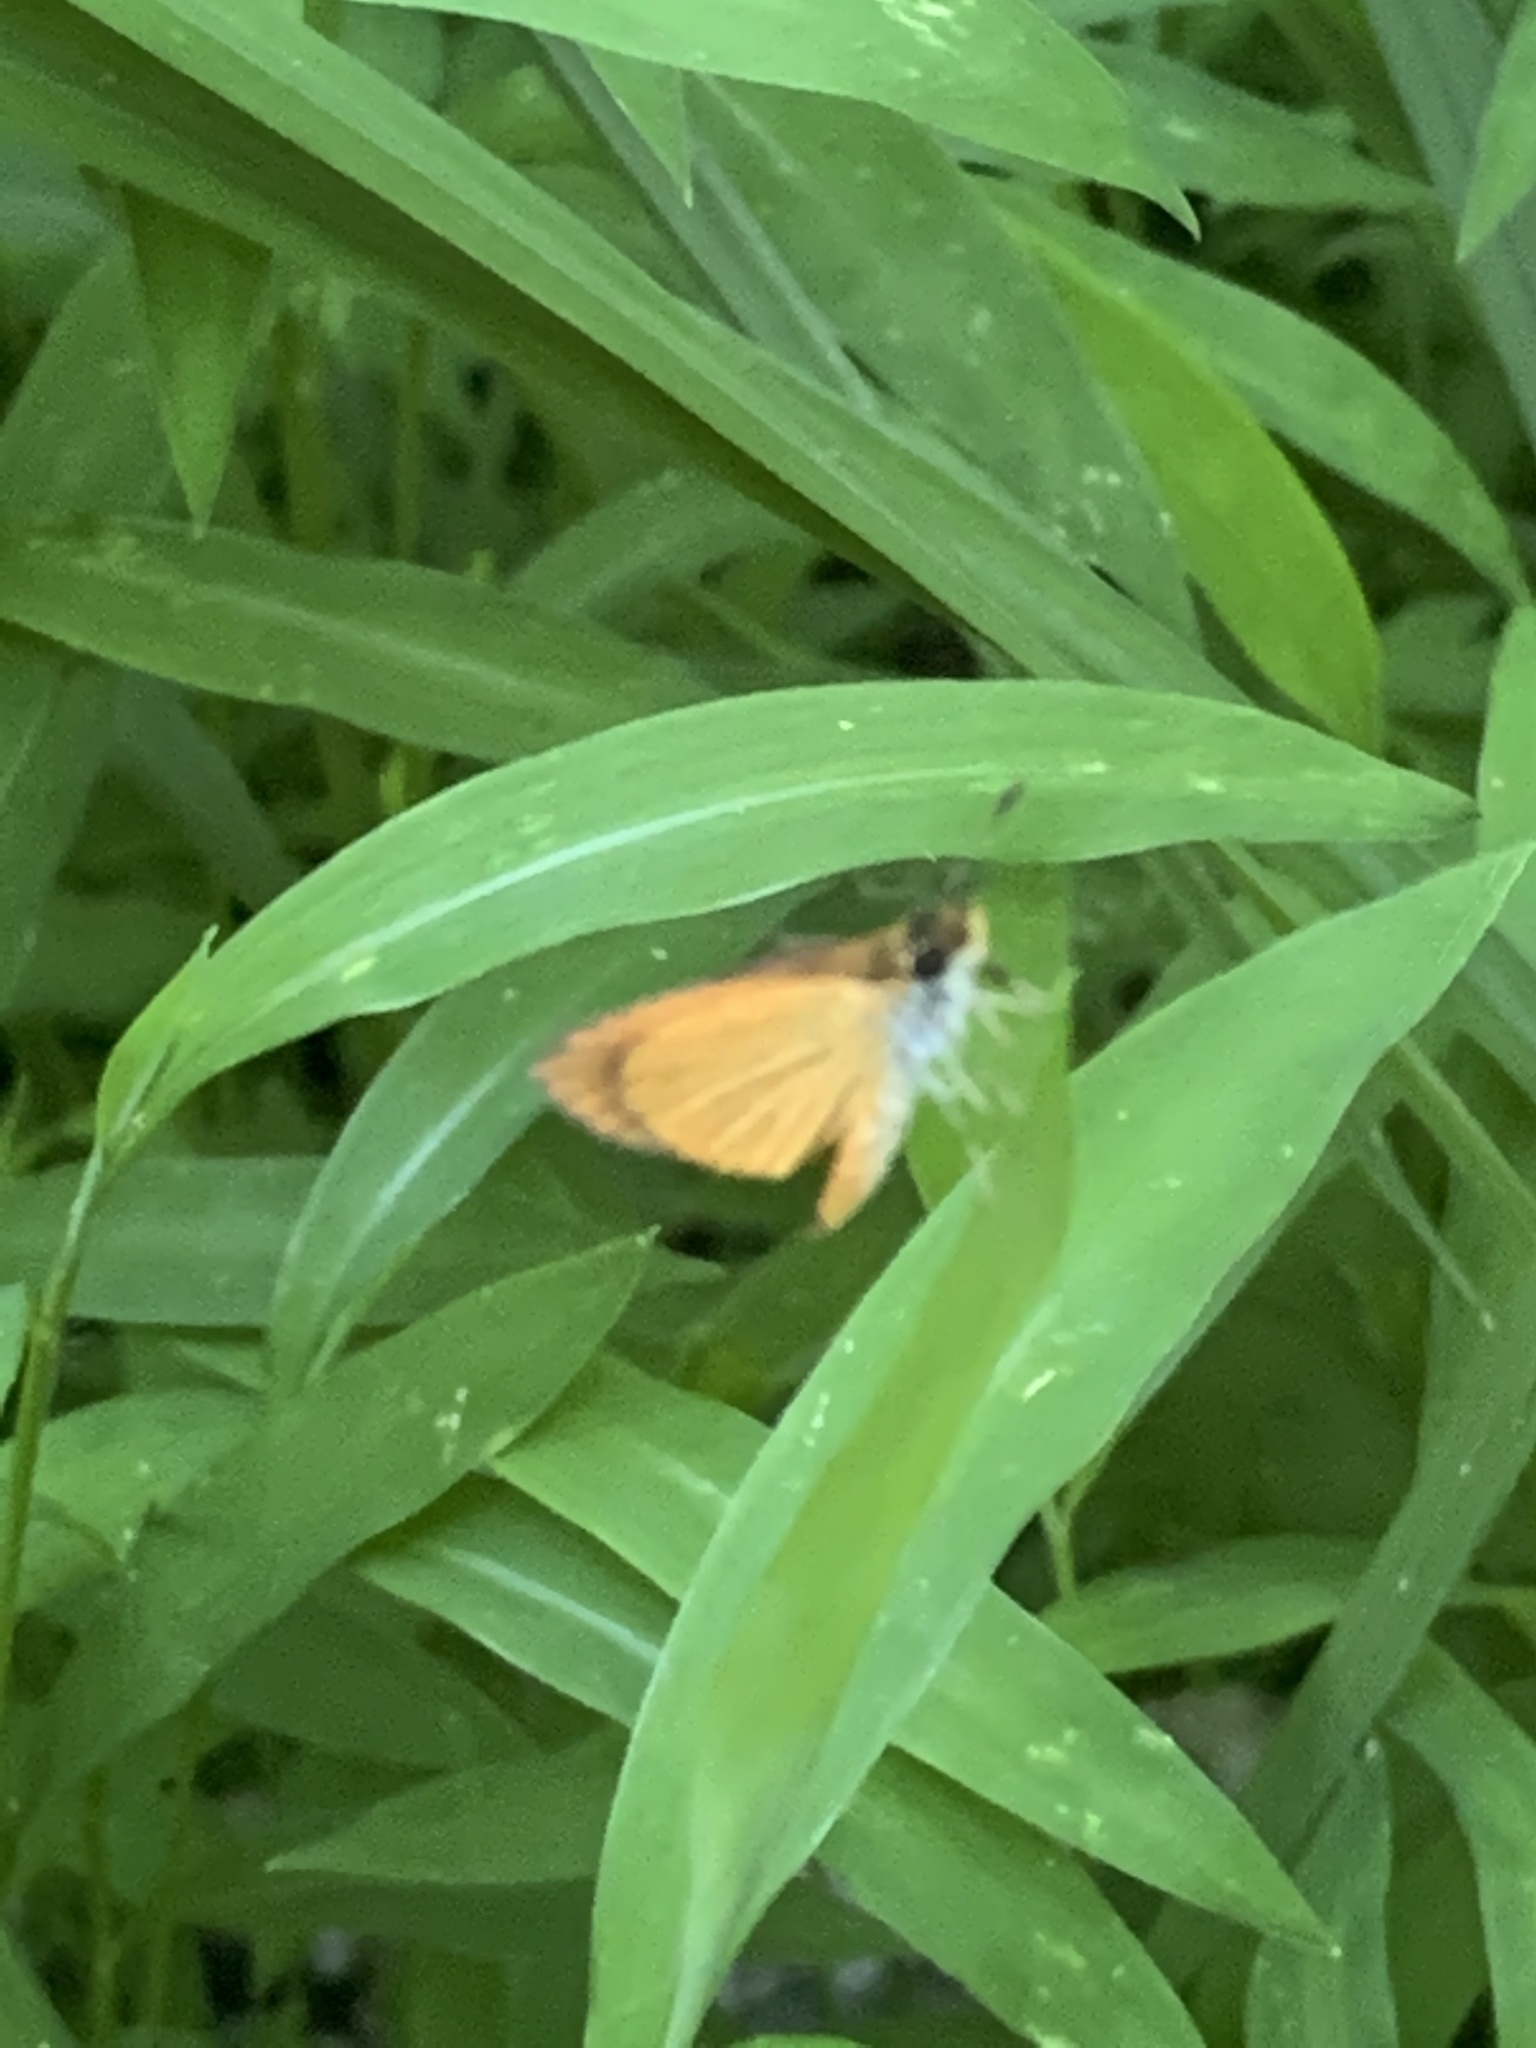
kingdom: Animalia
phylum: Arthropoda
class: Insecta
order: Lepidoptera
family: Hesperiidae
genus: Ancyloxypha
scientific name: Ancyloxypha numitor
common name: Least skipper
